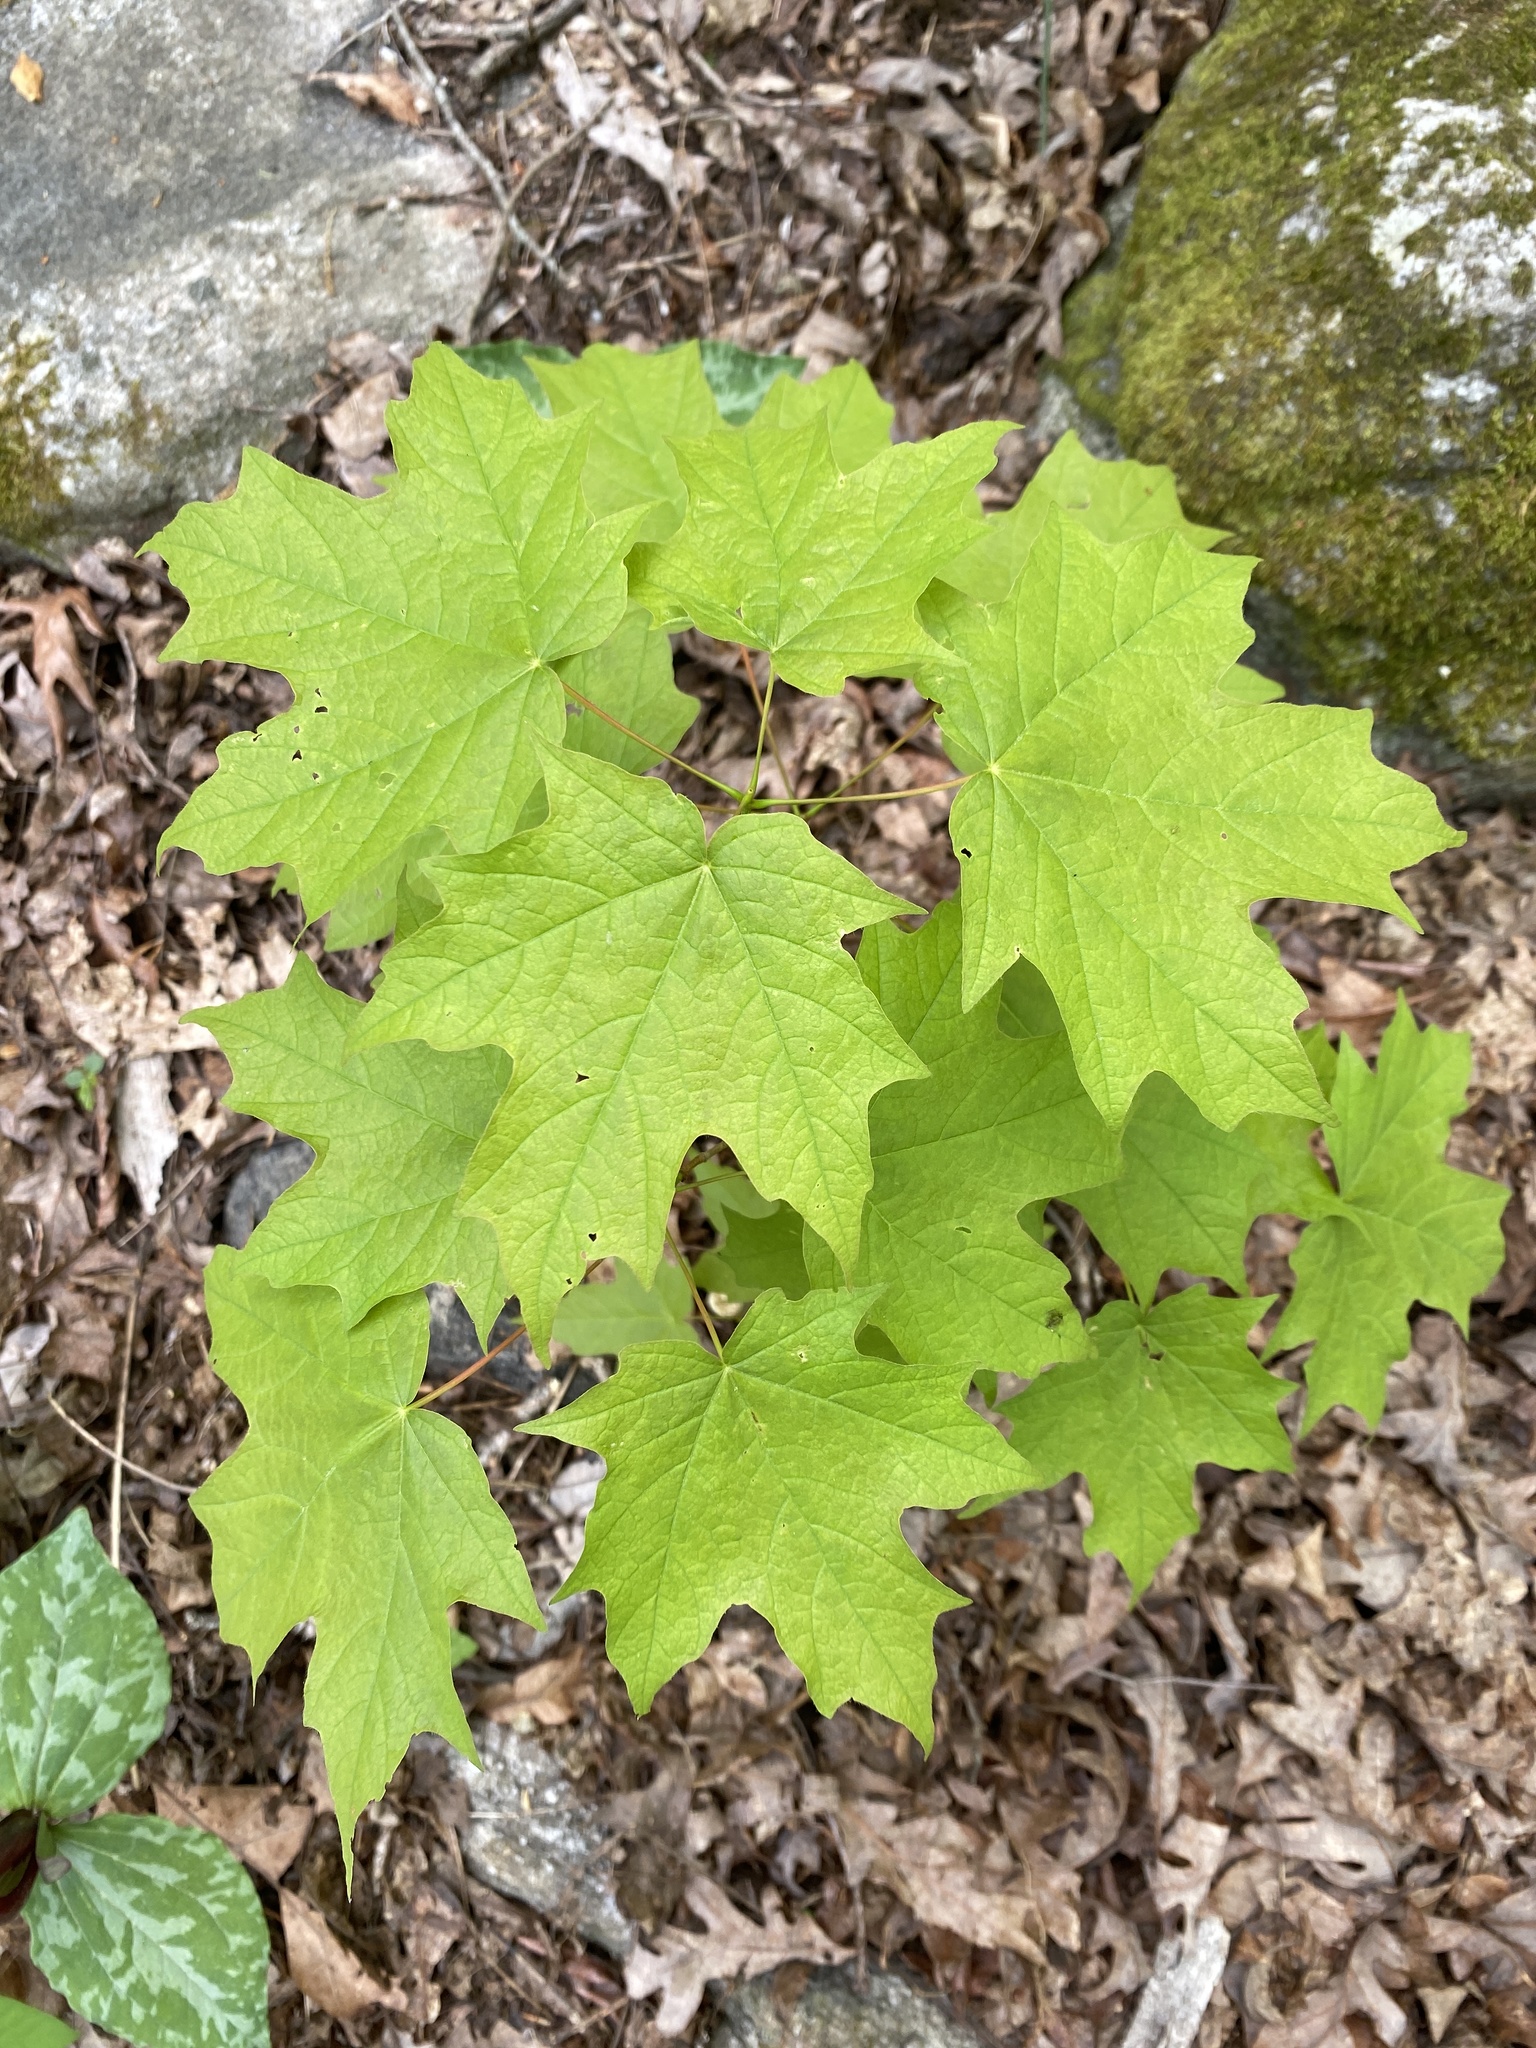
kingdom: Plantae
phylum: Tracheophyta
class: Magnoliopsida
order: Sapindales
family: Sapindaceae
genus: Acer
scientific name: Acer saccharum
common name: Sugar maple
